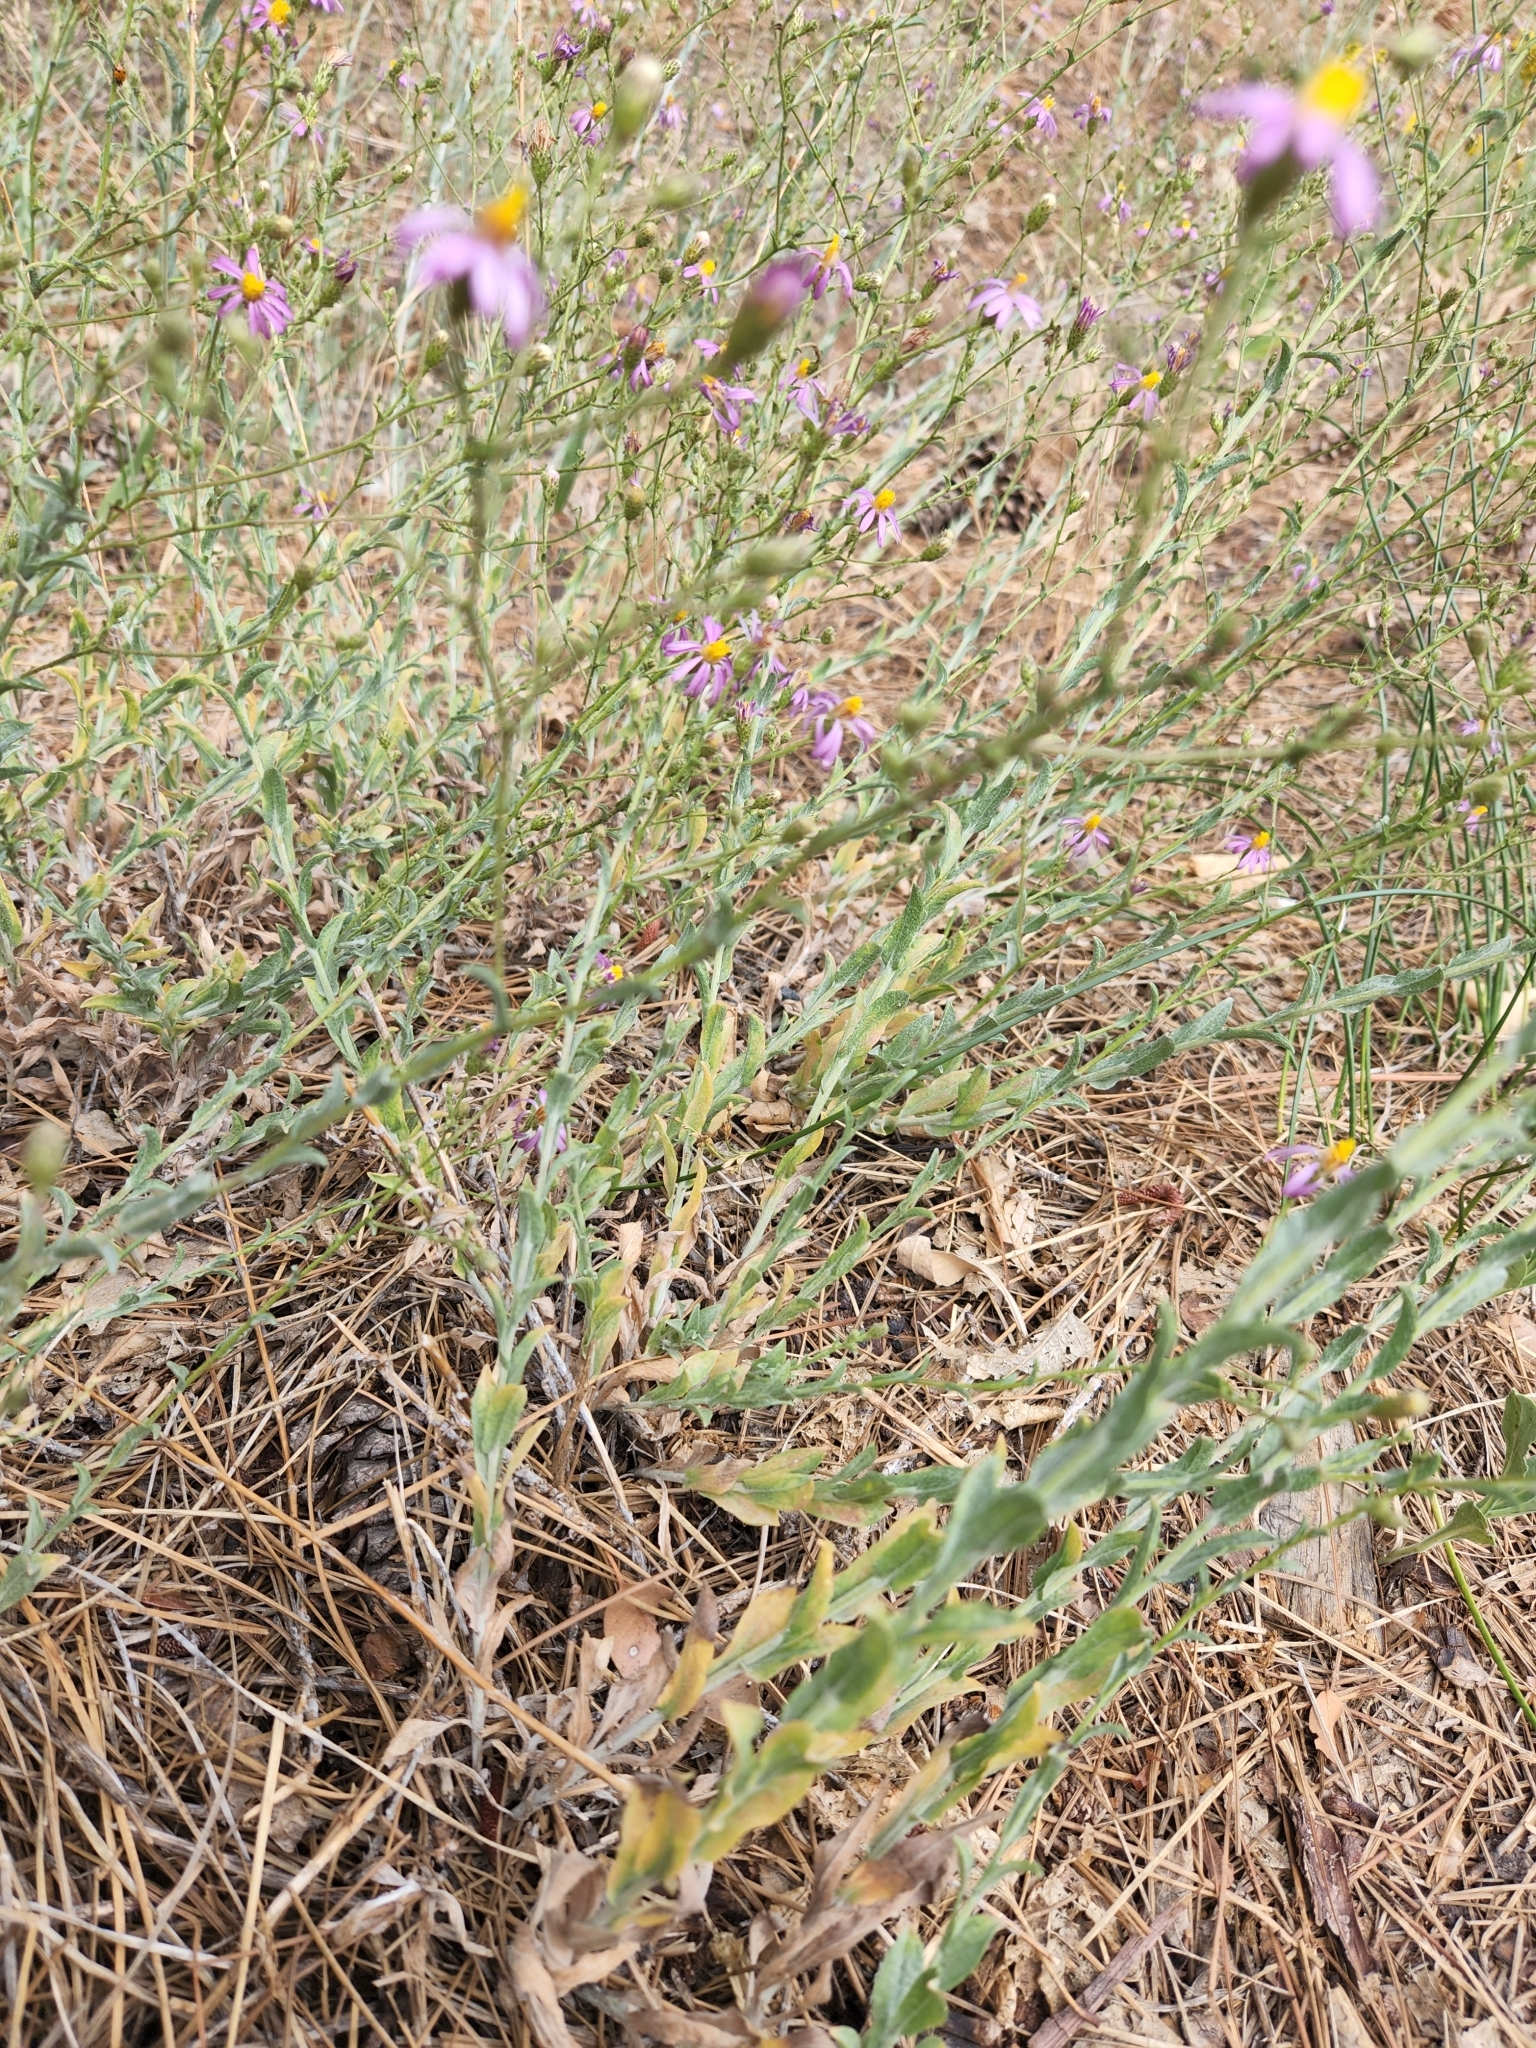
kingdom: Plantae
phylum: Tracheophyta
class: Magnoliopsida
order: Asterales
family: Asteraceae
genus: Corethrogyne
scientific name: Corethrogyne filaginifolia
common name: Sand-aster
